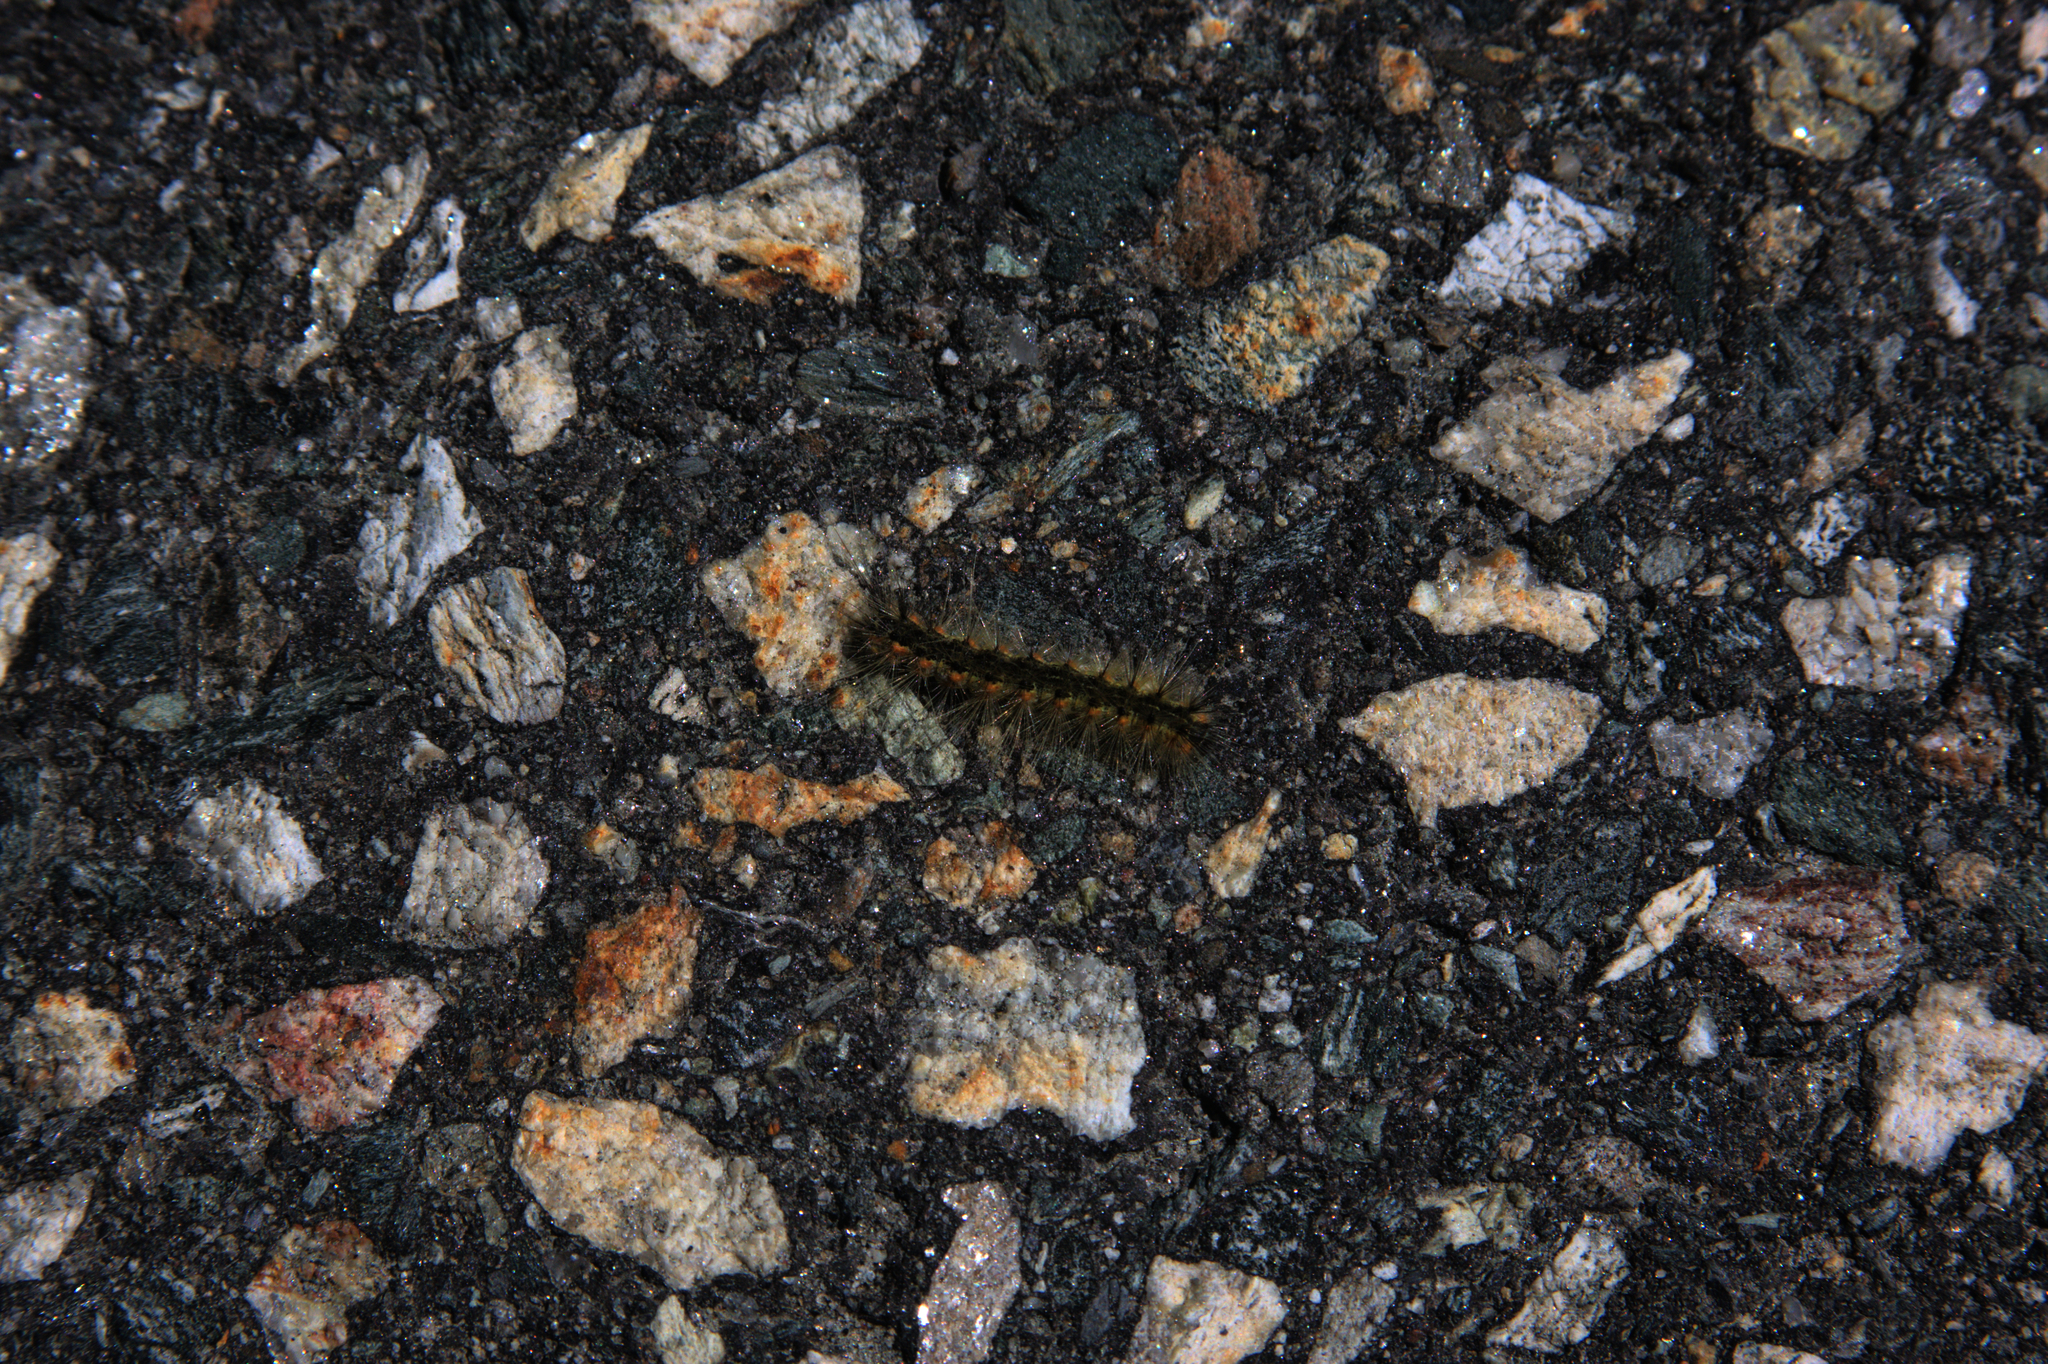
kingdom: Animalia
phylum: Arthropoda
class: Insecta
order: Lepidoptera
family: Erebidae
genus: Hyphantria
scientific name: Hyphantria cunea
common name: American white moth
